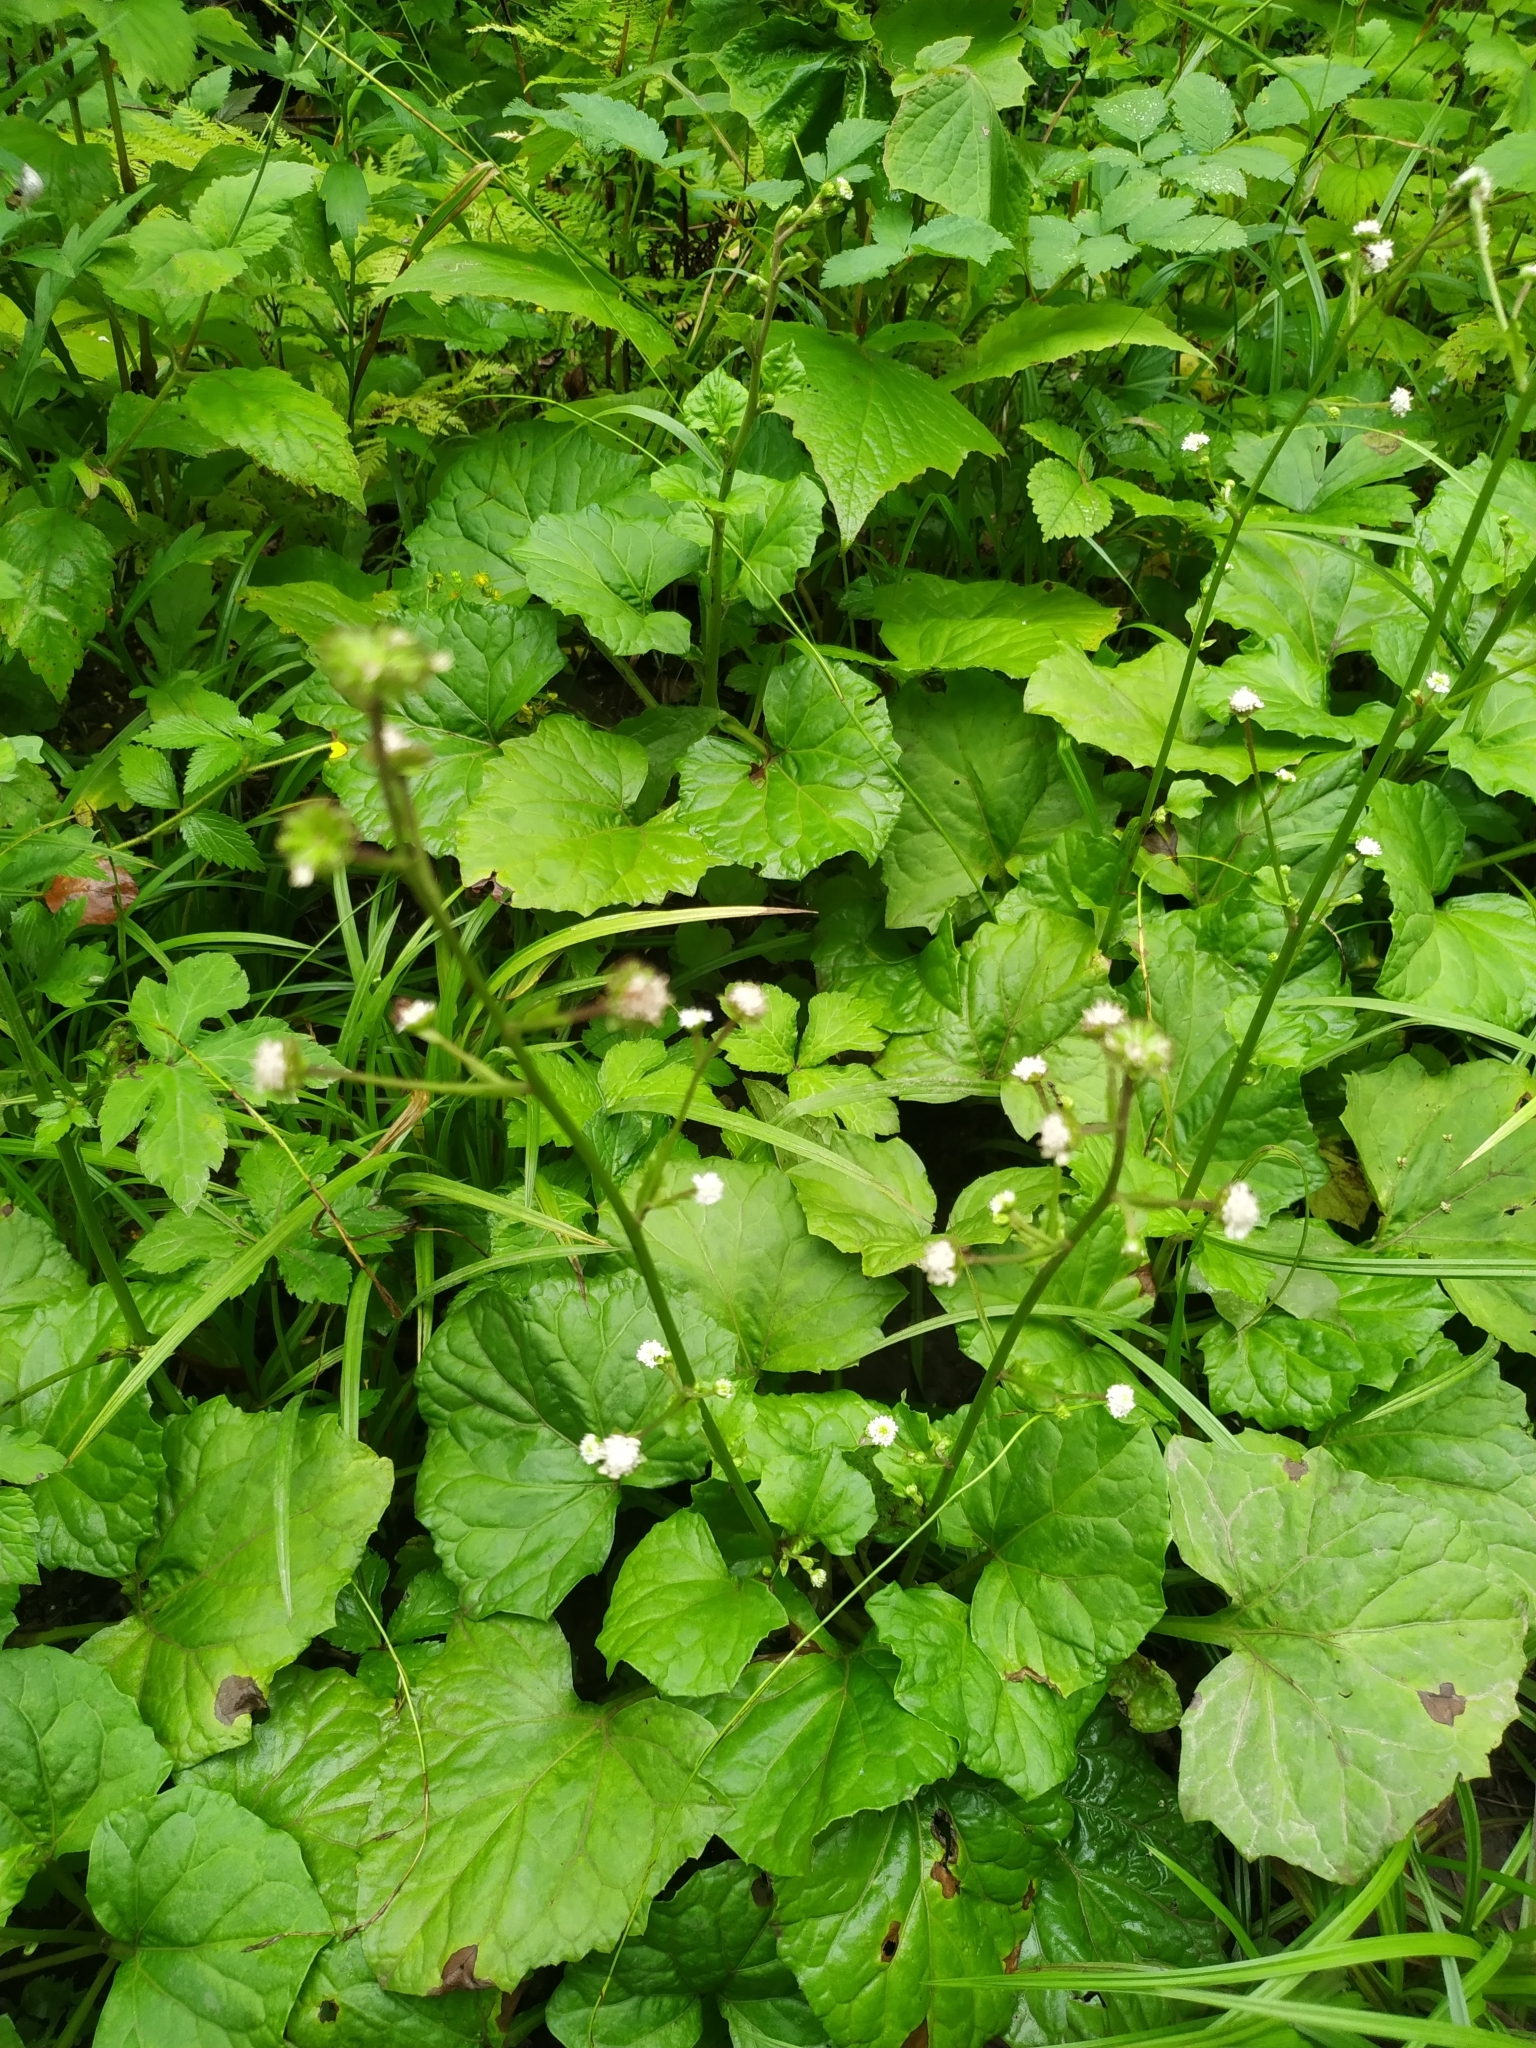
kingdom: Plantae
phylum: Tracheophyta
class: Magnoliopsida
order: Asterales
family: Asteraceae
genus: Adenocaulon
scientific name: Adenocaulon himalaicum
